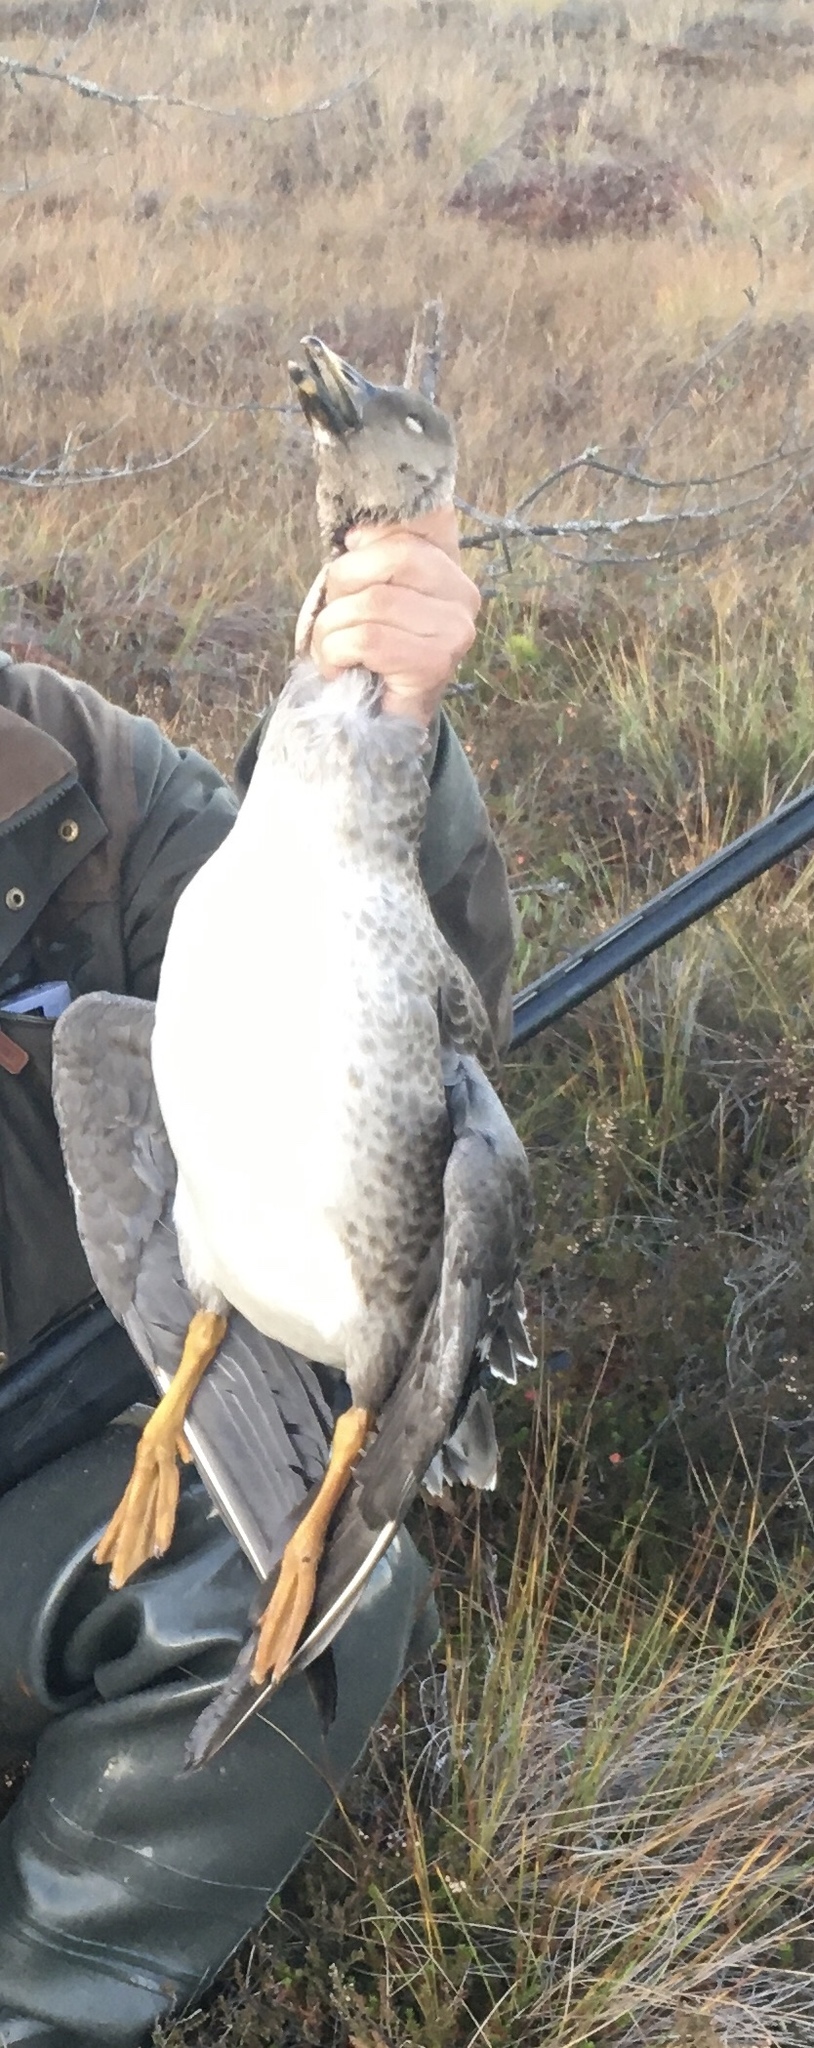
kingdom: Animalia
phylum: Chordata
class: Aves
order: Anseriformes
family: Anatidae
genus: Anser
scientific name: Anser fabalis
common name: Bean goose
